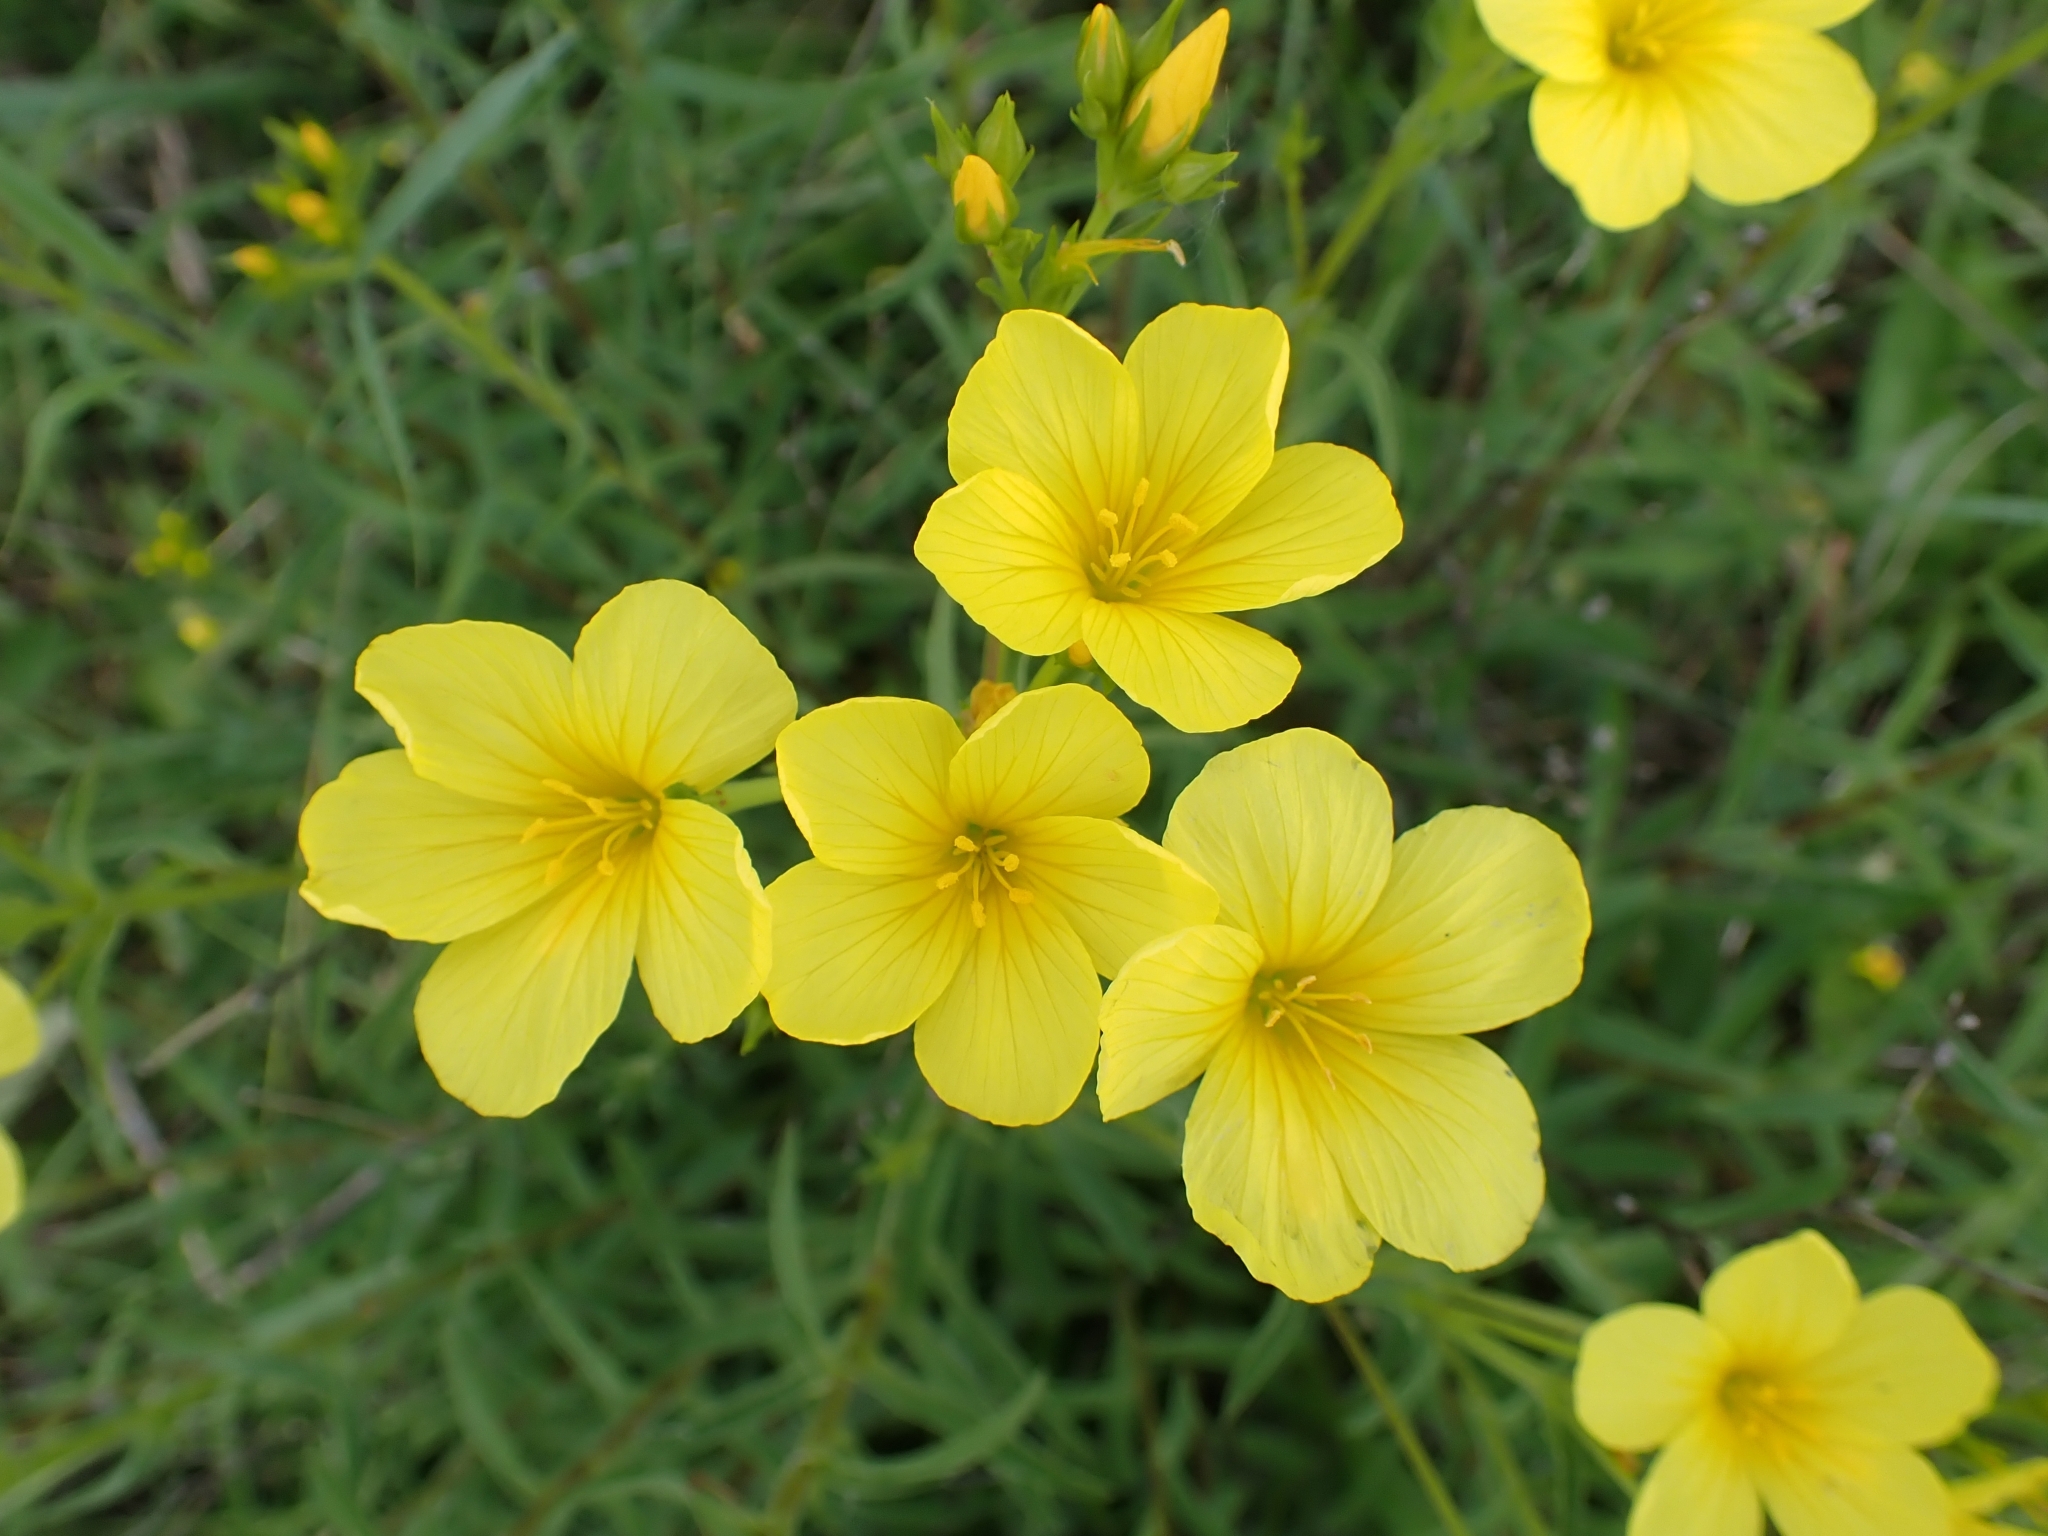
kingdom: Plantae
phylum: Tracheophyta
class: Magnoliopsida
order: Malpighiales
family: Linaceae
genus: Linum
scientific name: Linum flavum
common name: Yellow flax
